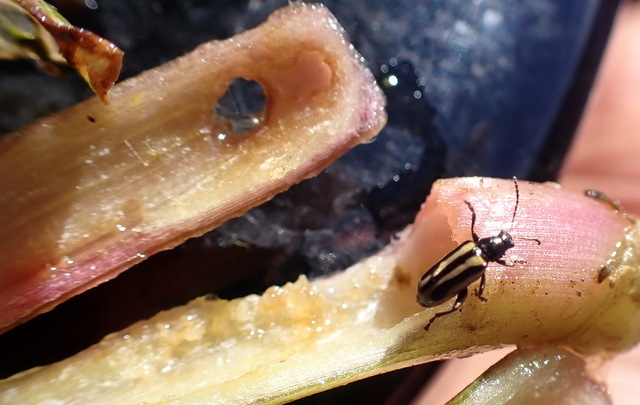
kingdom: Animalia
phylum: Arthropoda
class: Insecta
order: Coleoptera
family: Chrysomelidae
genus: Agasicles
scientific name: Agasicles hygrophila
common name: Alligatorweed flea beetle
